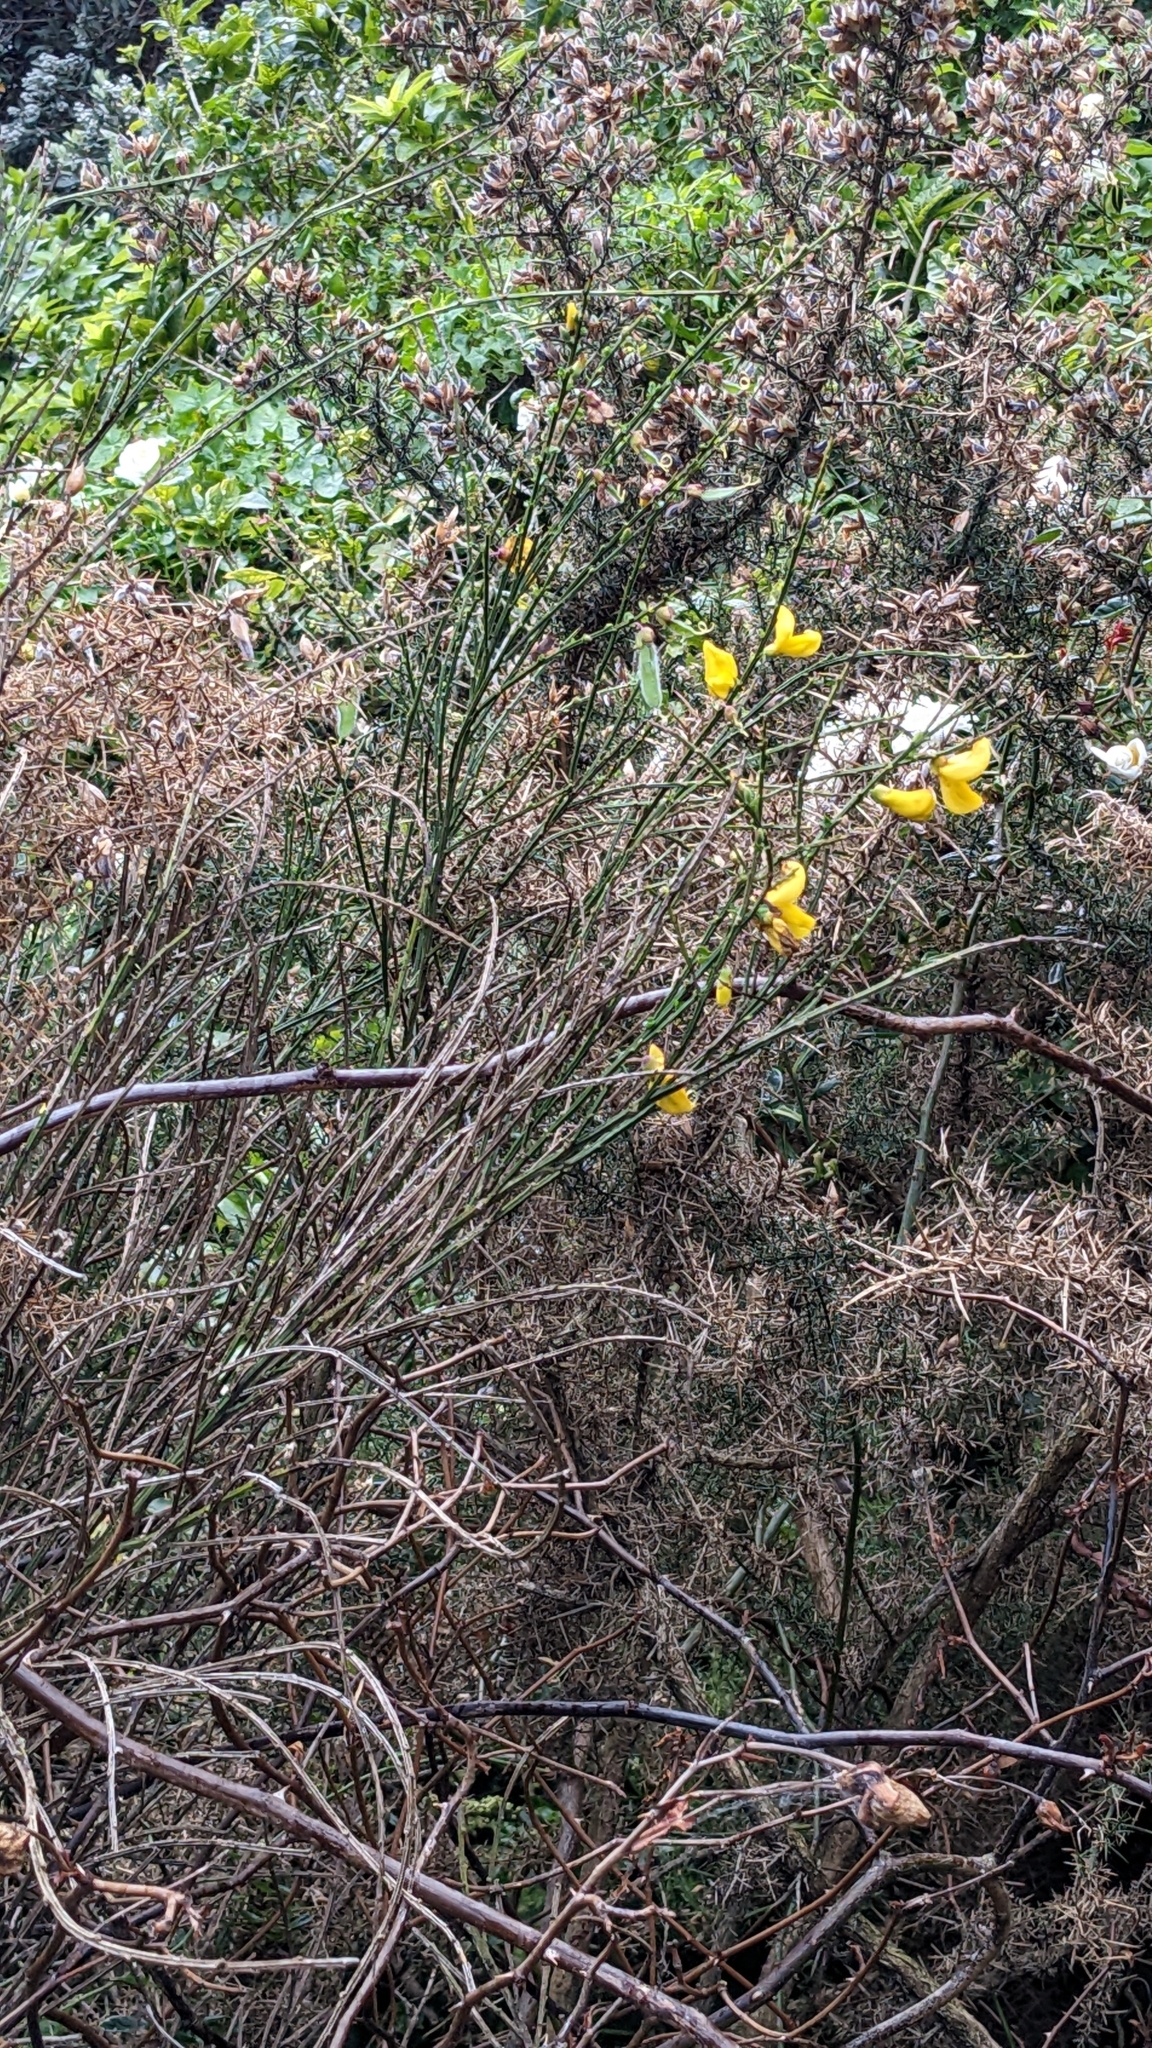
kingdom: Plantae
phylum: Tracheophyta
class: Magnoliopsida
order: Fabales
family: Fabaceae
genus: Cytisus
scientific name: Cytisus scoparius
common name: Scotch broom
